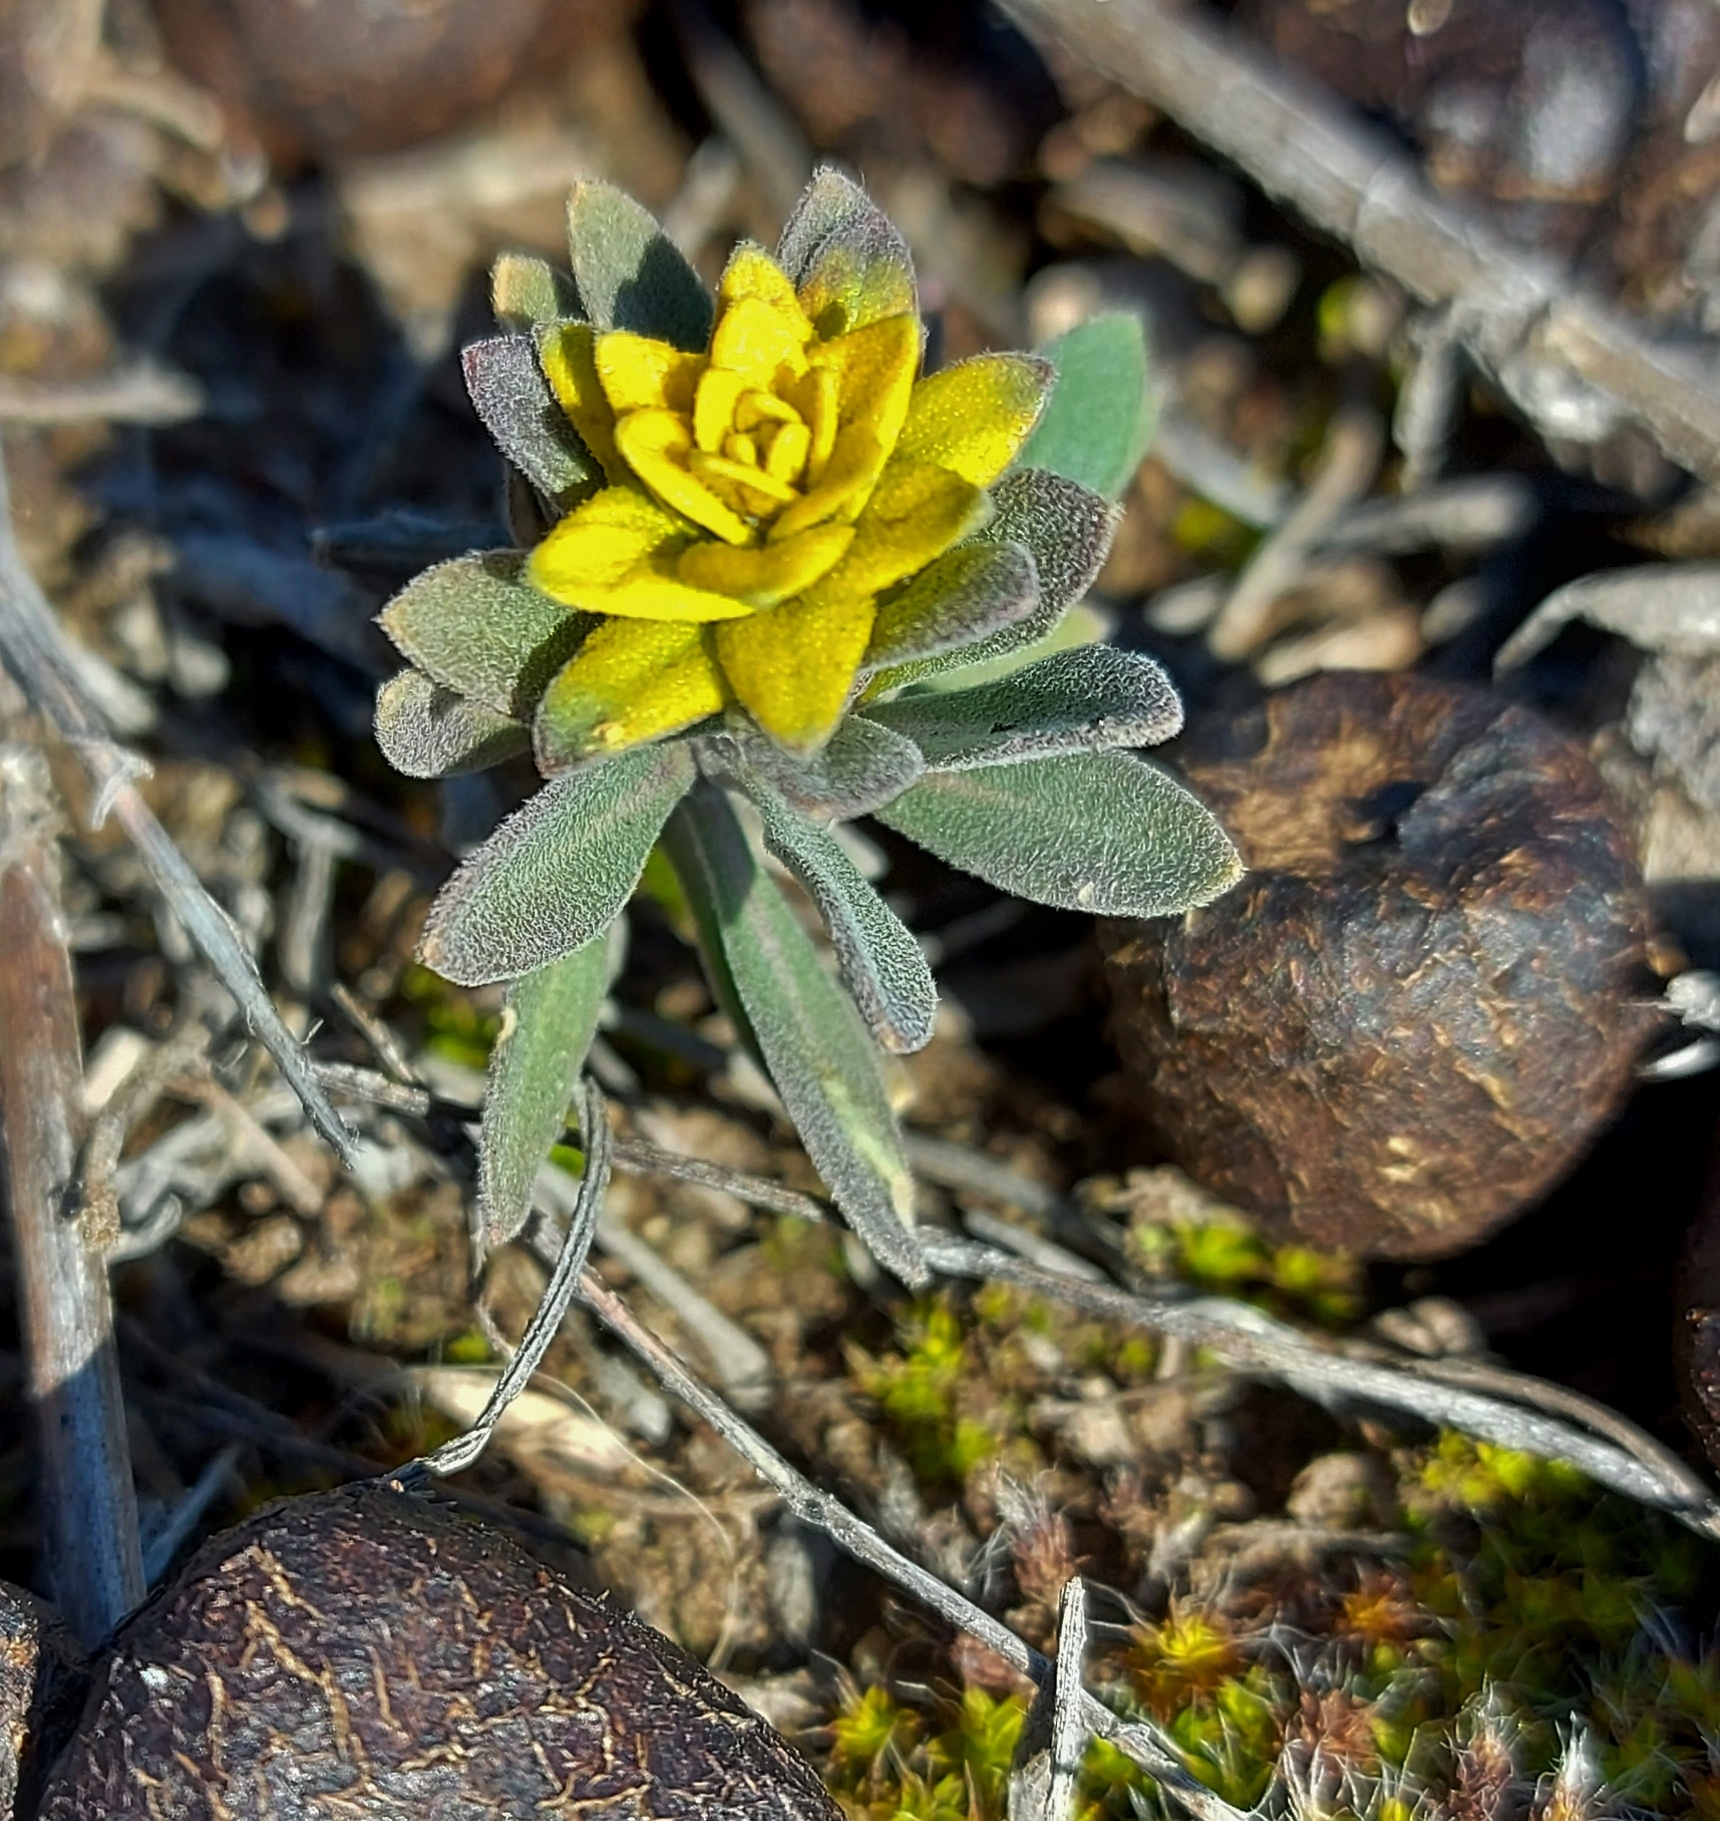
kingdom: Fungi
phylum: Basidiomycota
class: Pucciniomycetes
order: Pucciniales
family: Pucciniaceae
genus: Puccinia
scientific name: Puccinia monoica
